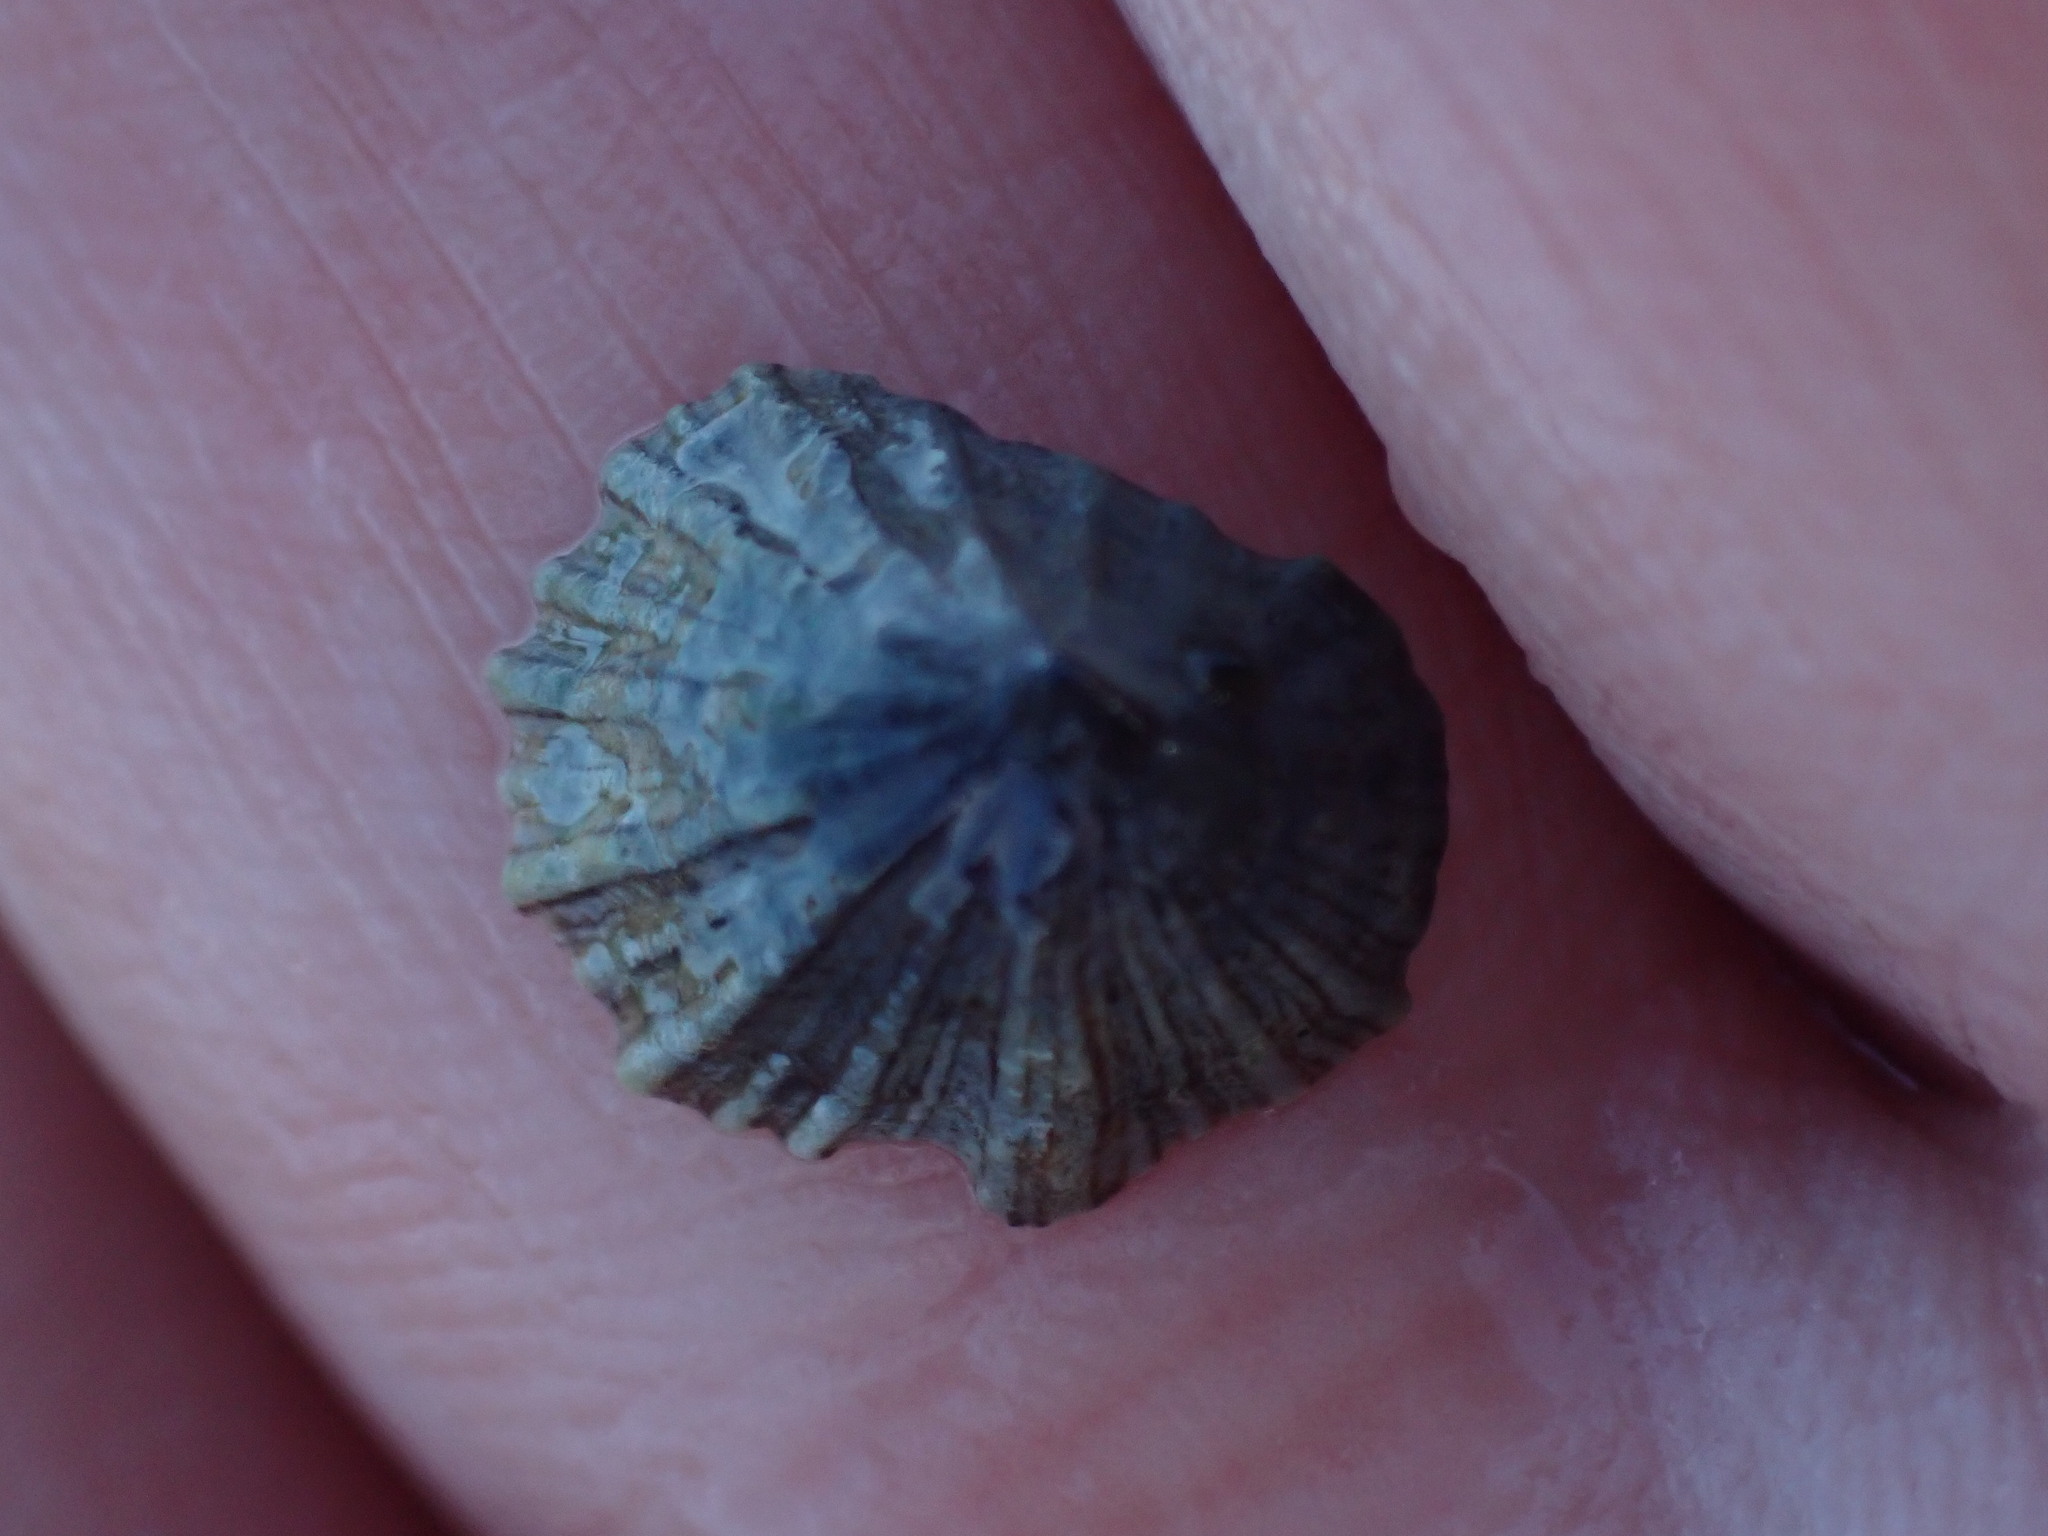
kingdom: Animalia
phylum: Mollusca
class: Gastropoda
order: Siphonariida
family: Siphonariidae
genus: Siphonaria
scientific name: Siphonaria australis
